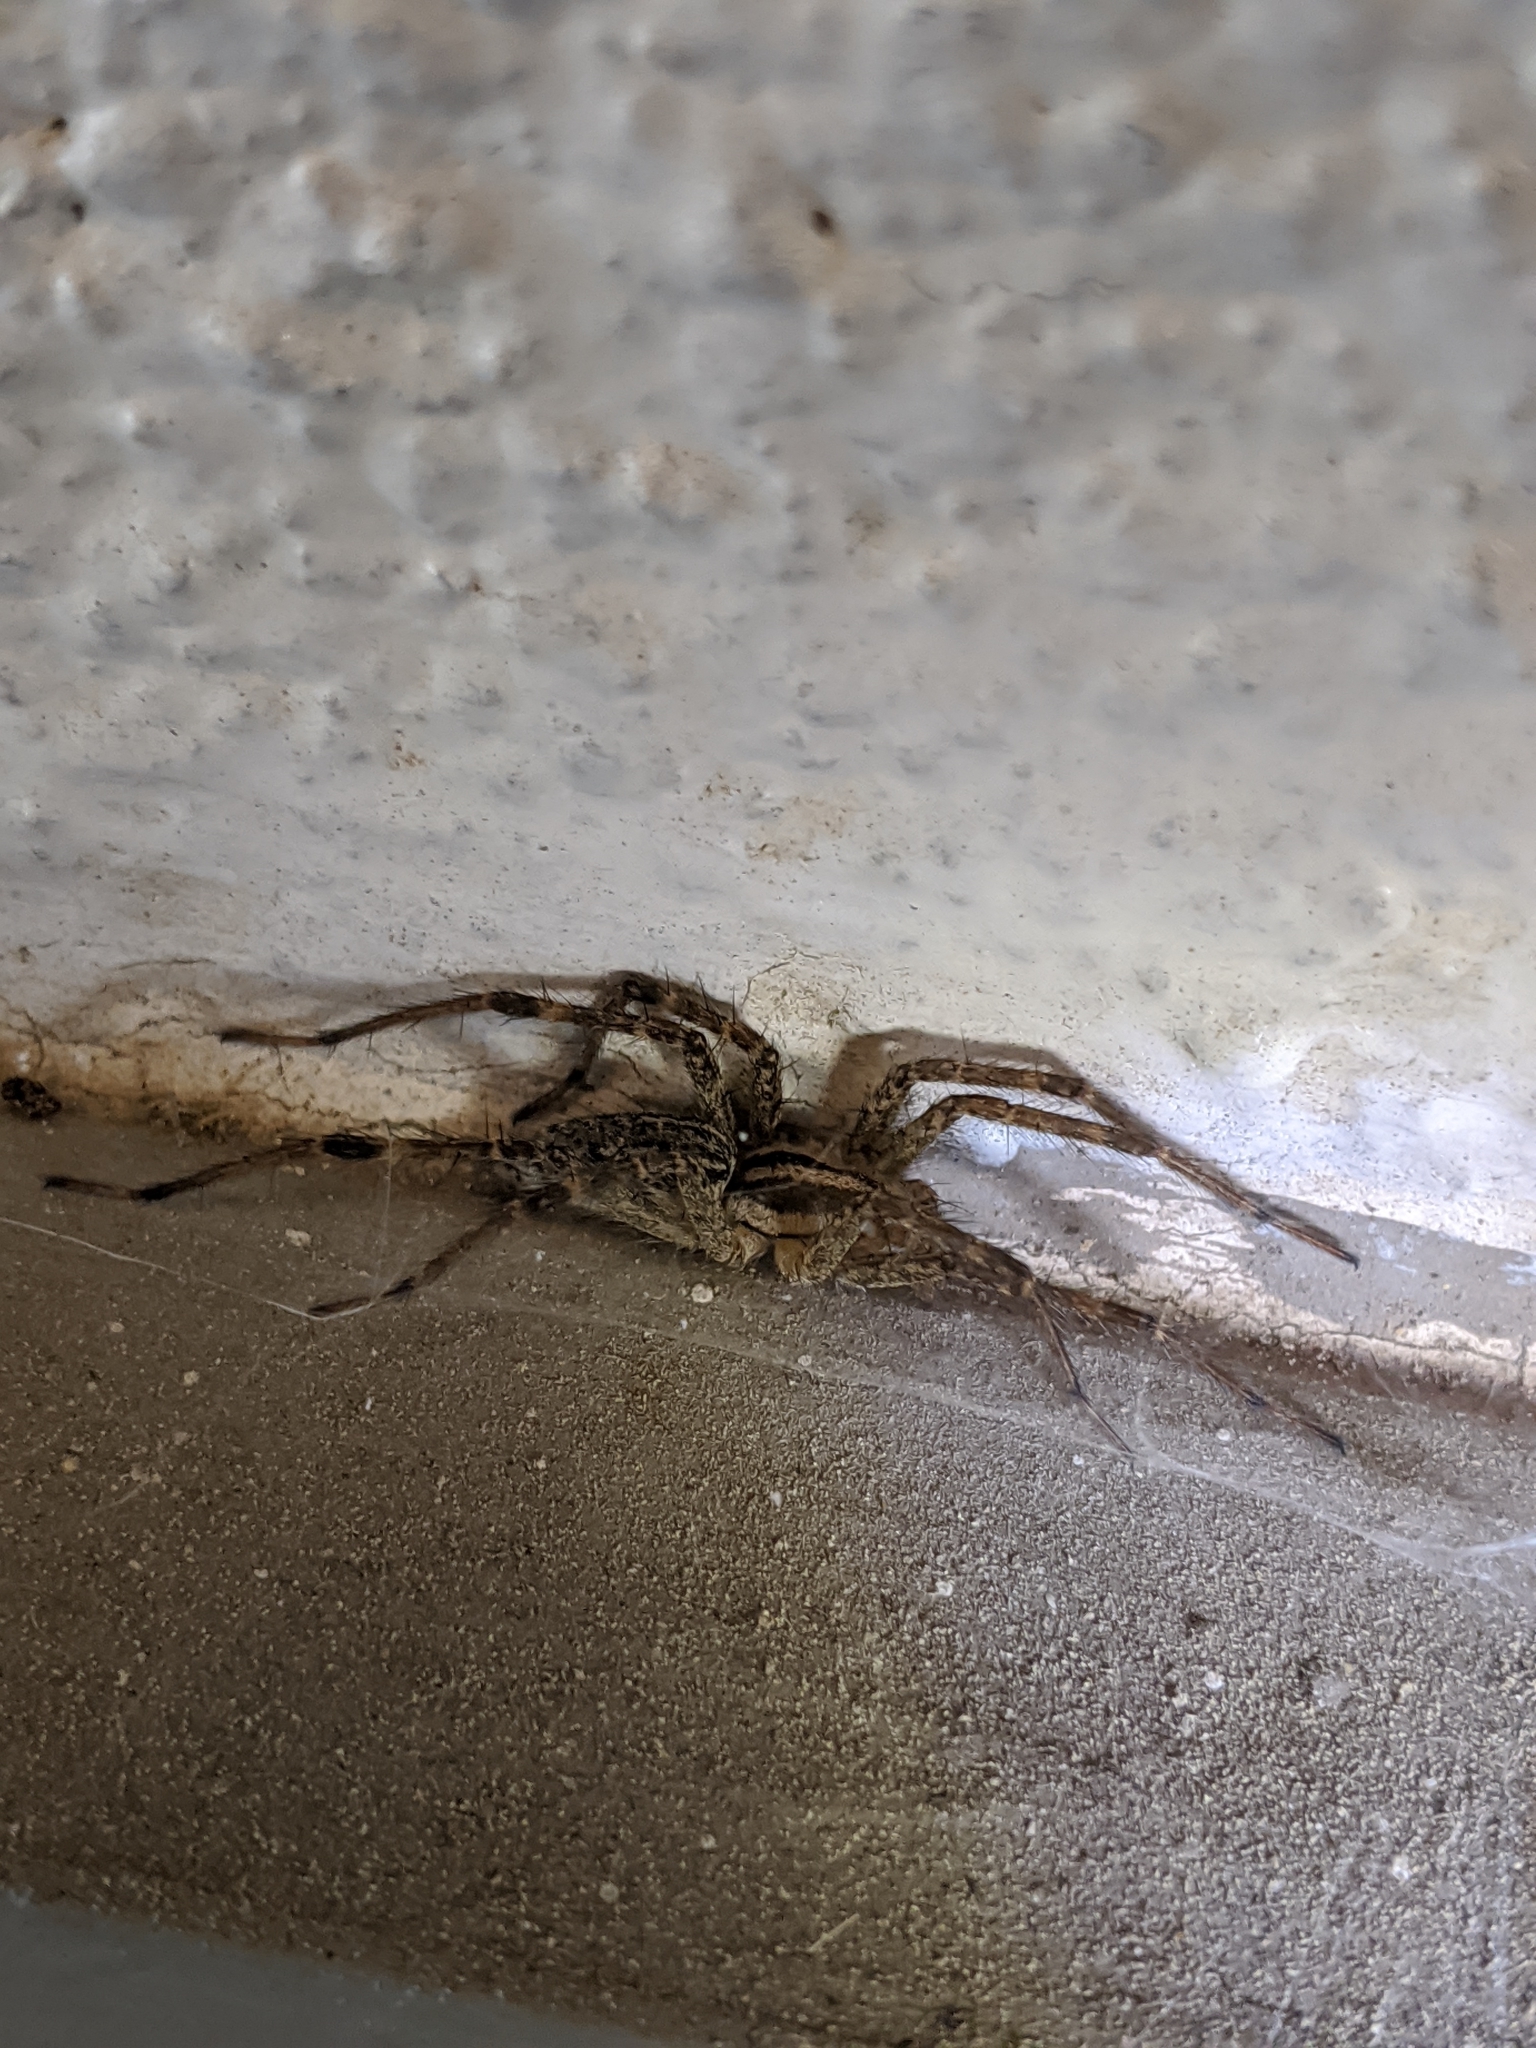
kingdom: Animalia
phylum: Arthropoda
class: Arachnida
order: Araneae
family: Agelenidae
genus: Agelenopsis
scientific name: Agelenopsis
